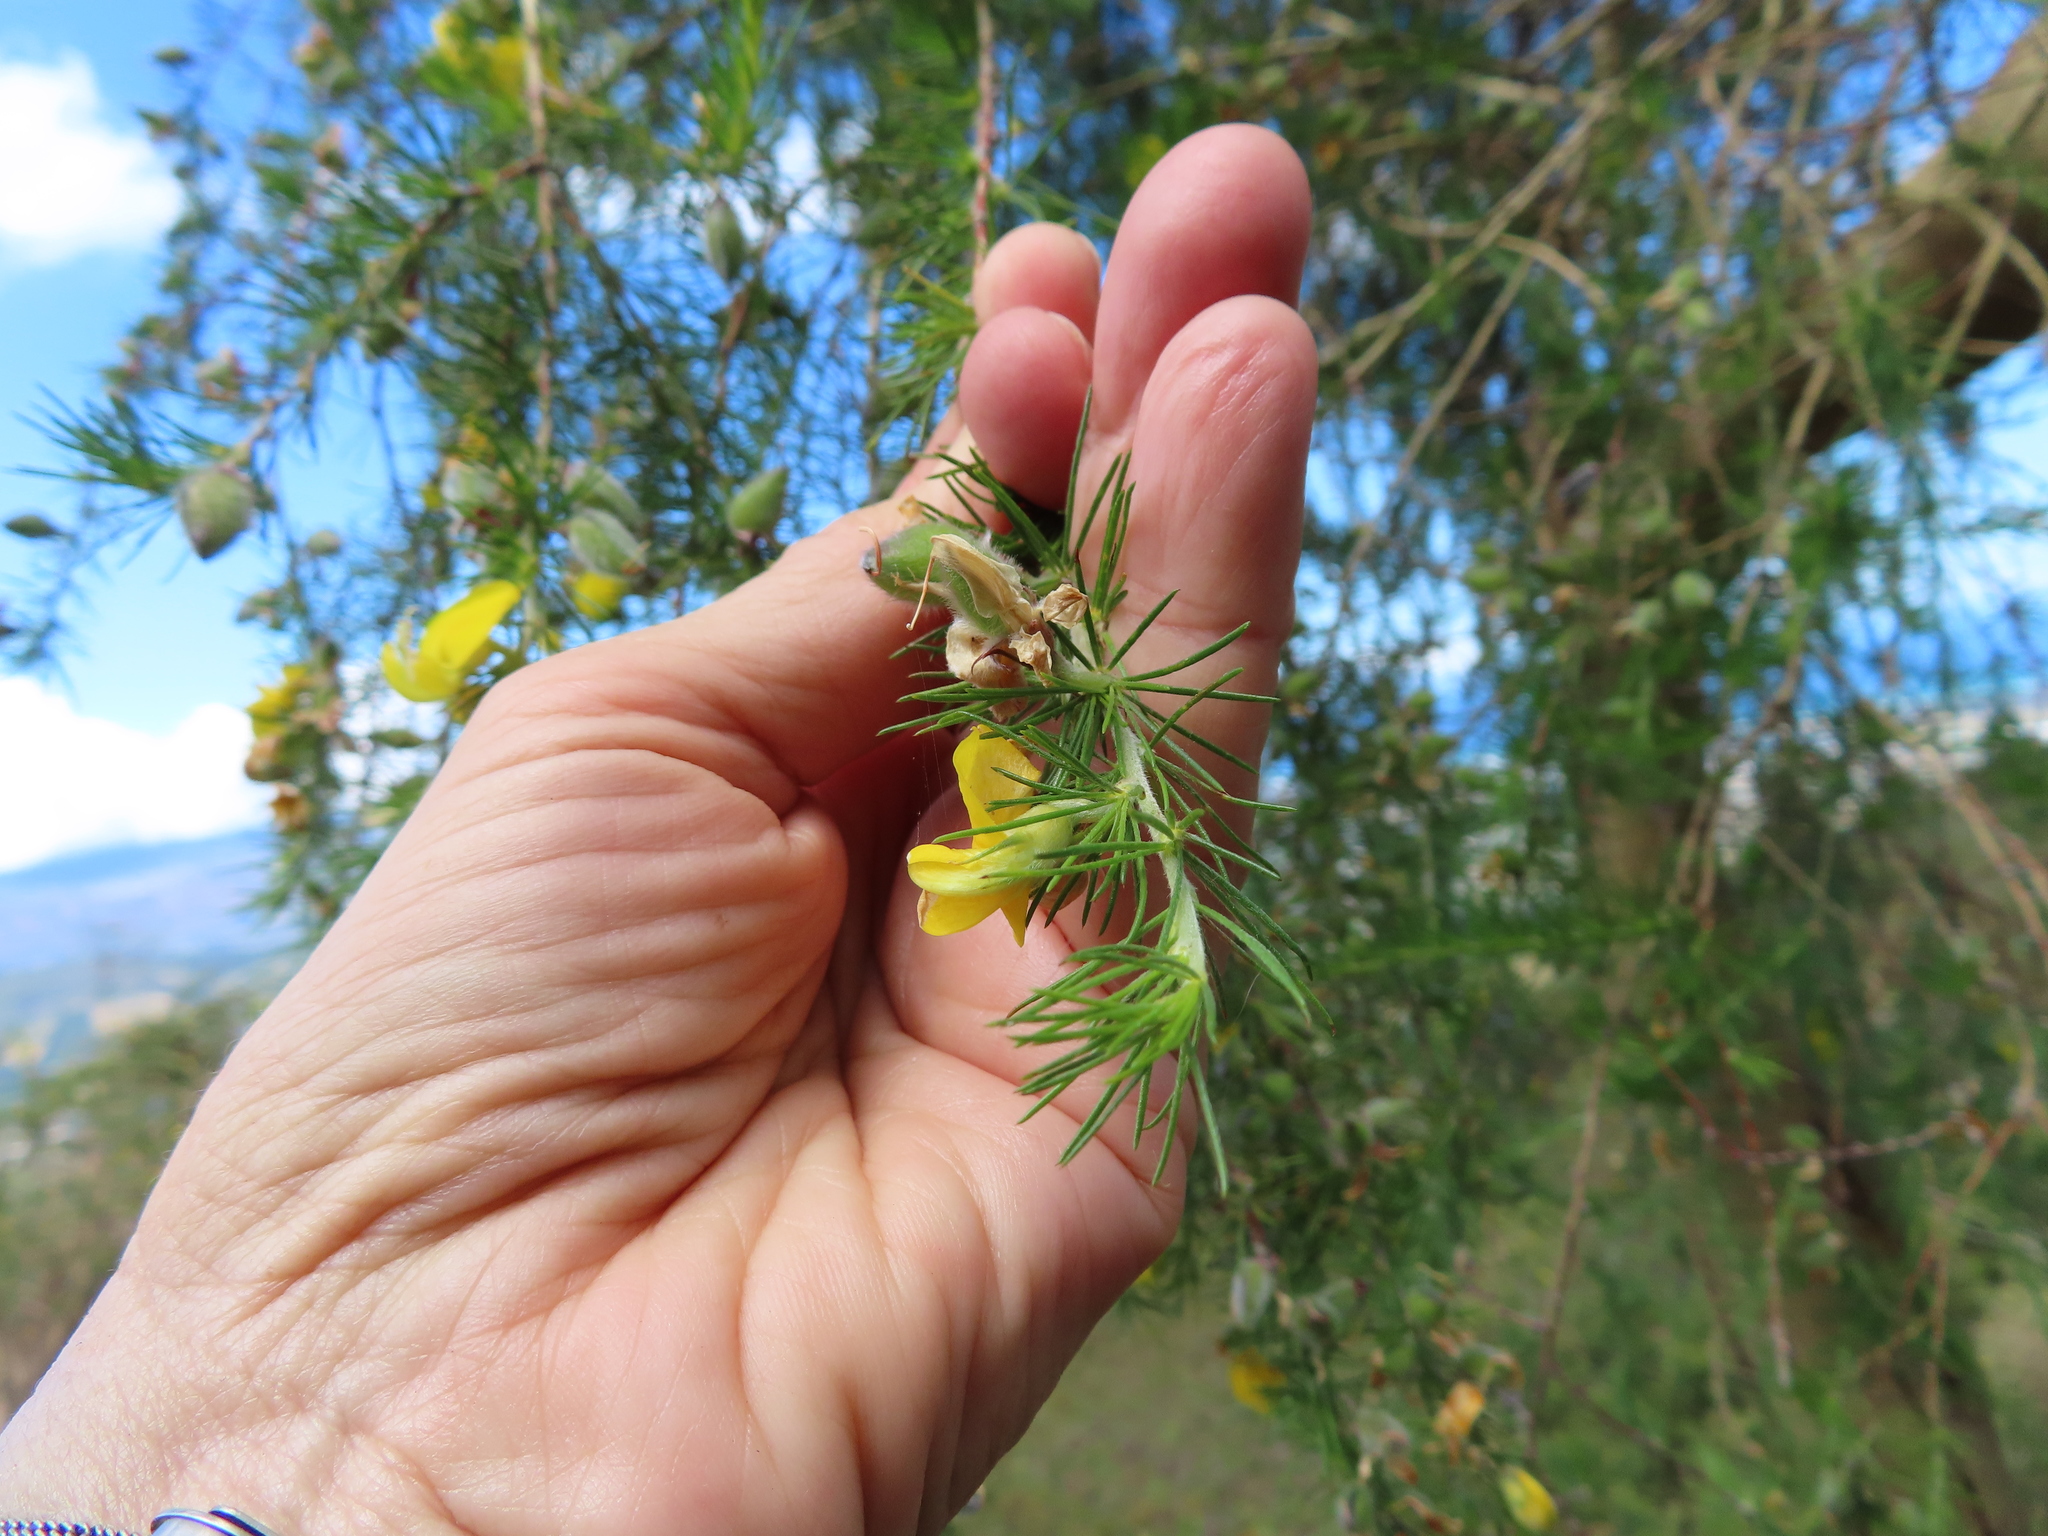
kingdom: Plantae
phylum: Tracheophyta
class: Magnoliopsida
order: Fabales
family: Fabaceae
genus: Aspalathus
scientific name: Aspalathus willdenowiana
